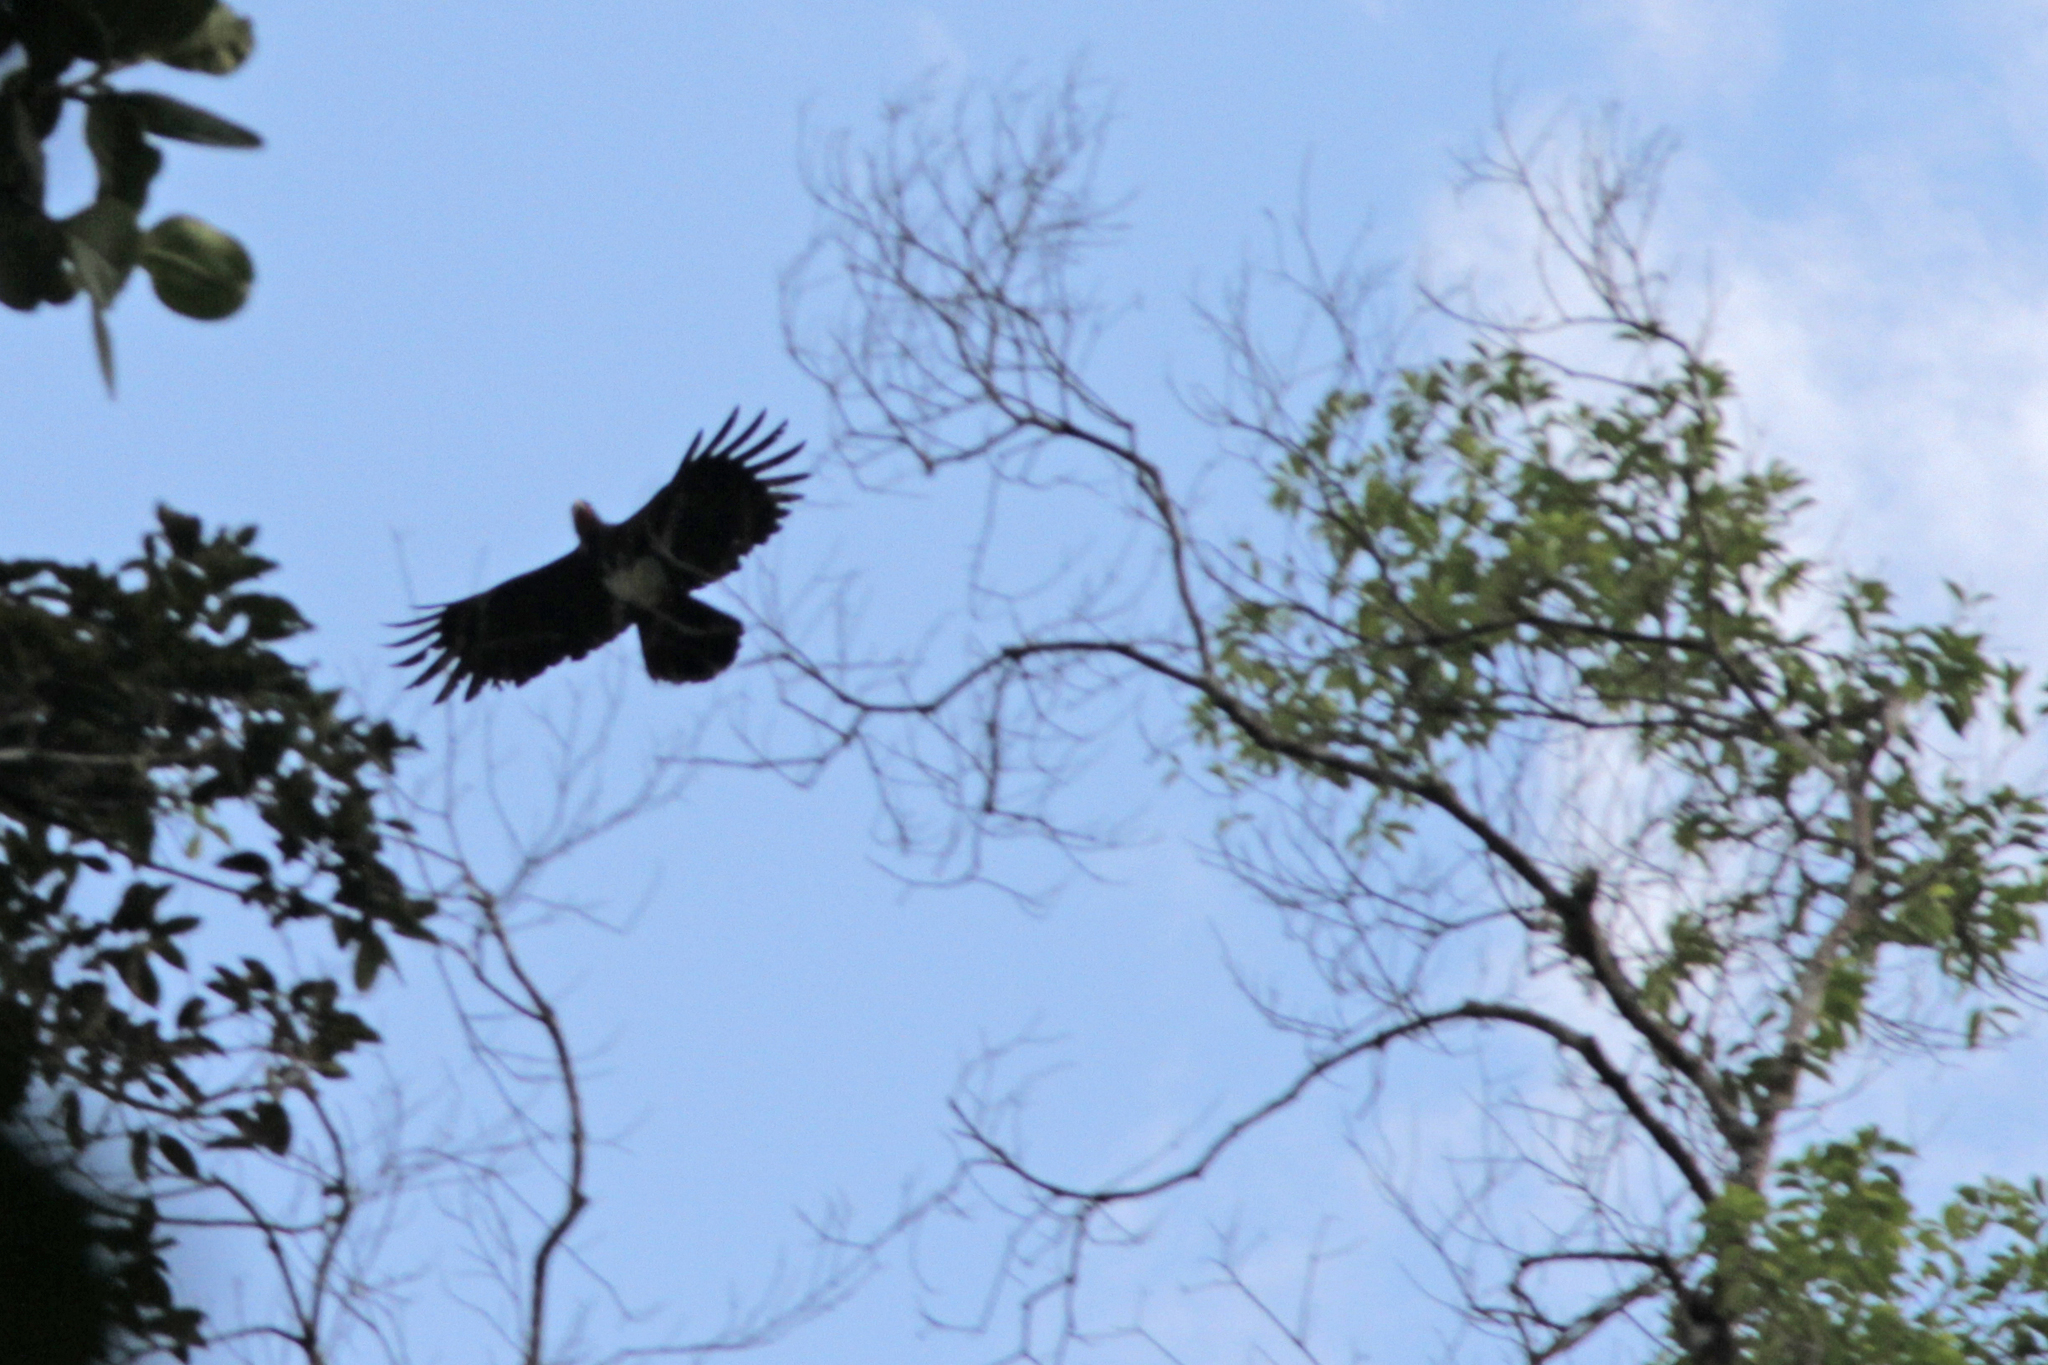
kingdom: Animalia
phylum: Chordata
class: Aves
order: Falconiformes
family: Falconidae
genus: Ibycter
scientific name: Ibycter americanus
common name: Red-throated caracara
